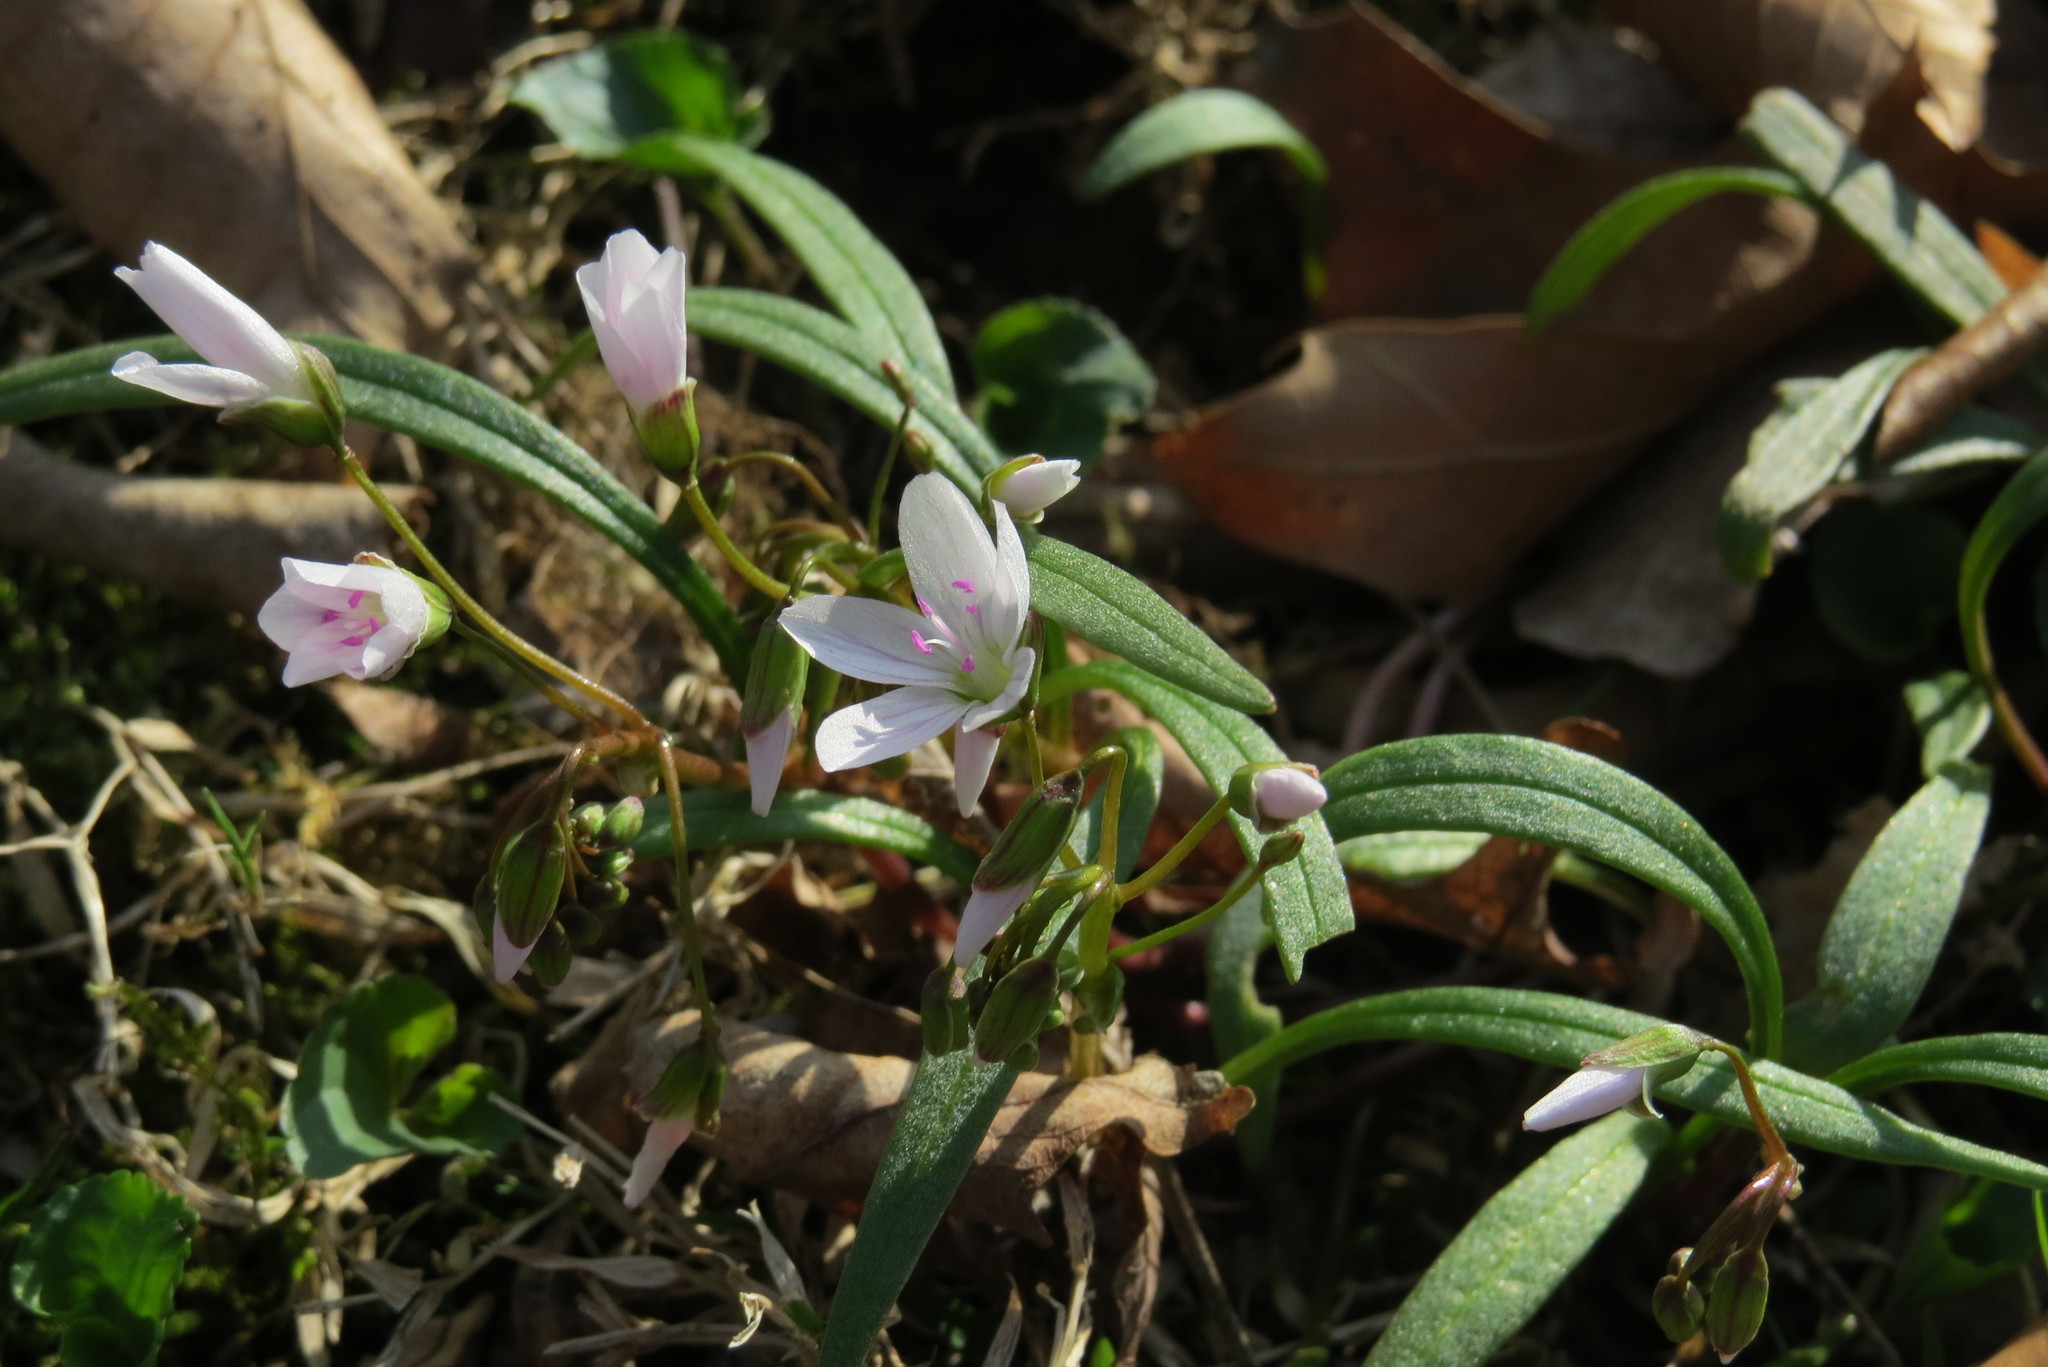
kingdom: Plantae
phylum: Tracheophyta
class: Magnoliopsida
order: Caryophyllales
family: Montiaceae
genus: Claytonia
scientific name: Claytonia virginica
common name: Virginia springbeauty
